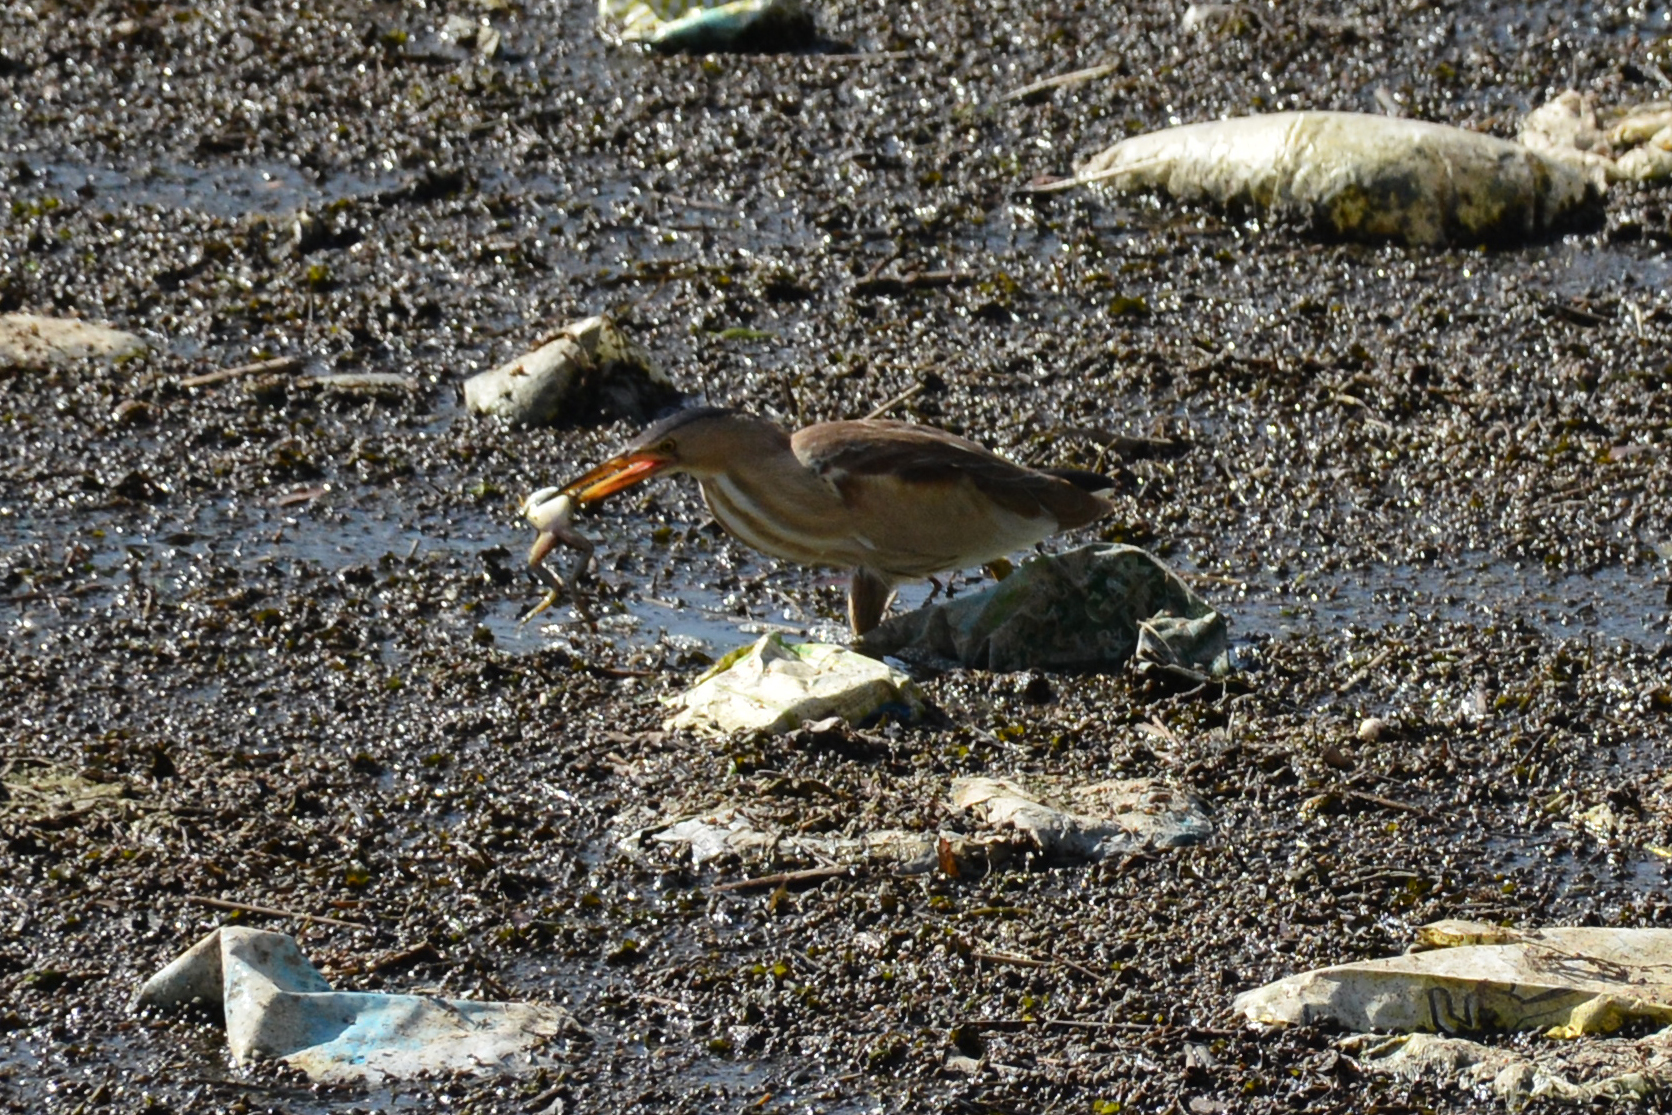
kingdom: Animalia
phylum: Chordata
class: Amphibia
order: Anura
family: Ranidae
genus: Pelophylax
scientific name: Pelophylax ridibundus
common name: Marsh frog
